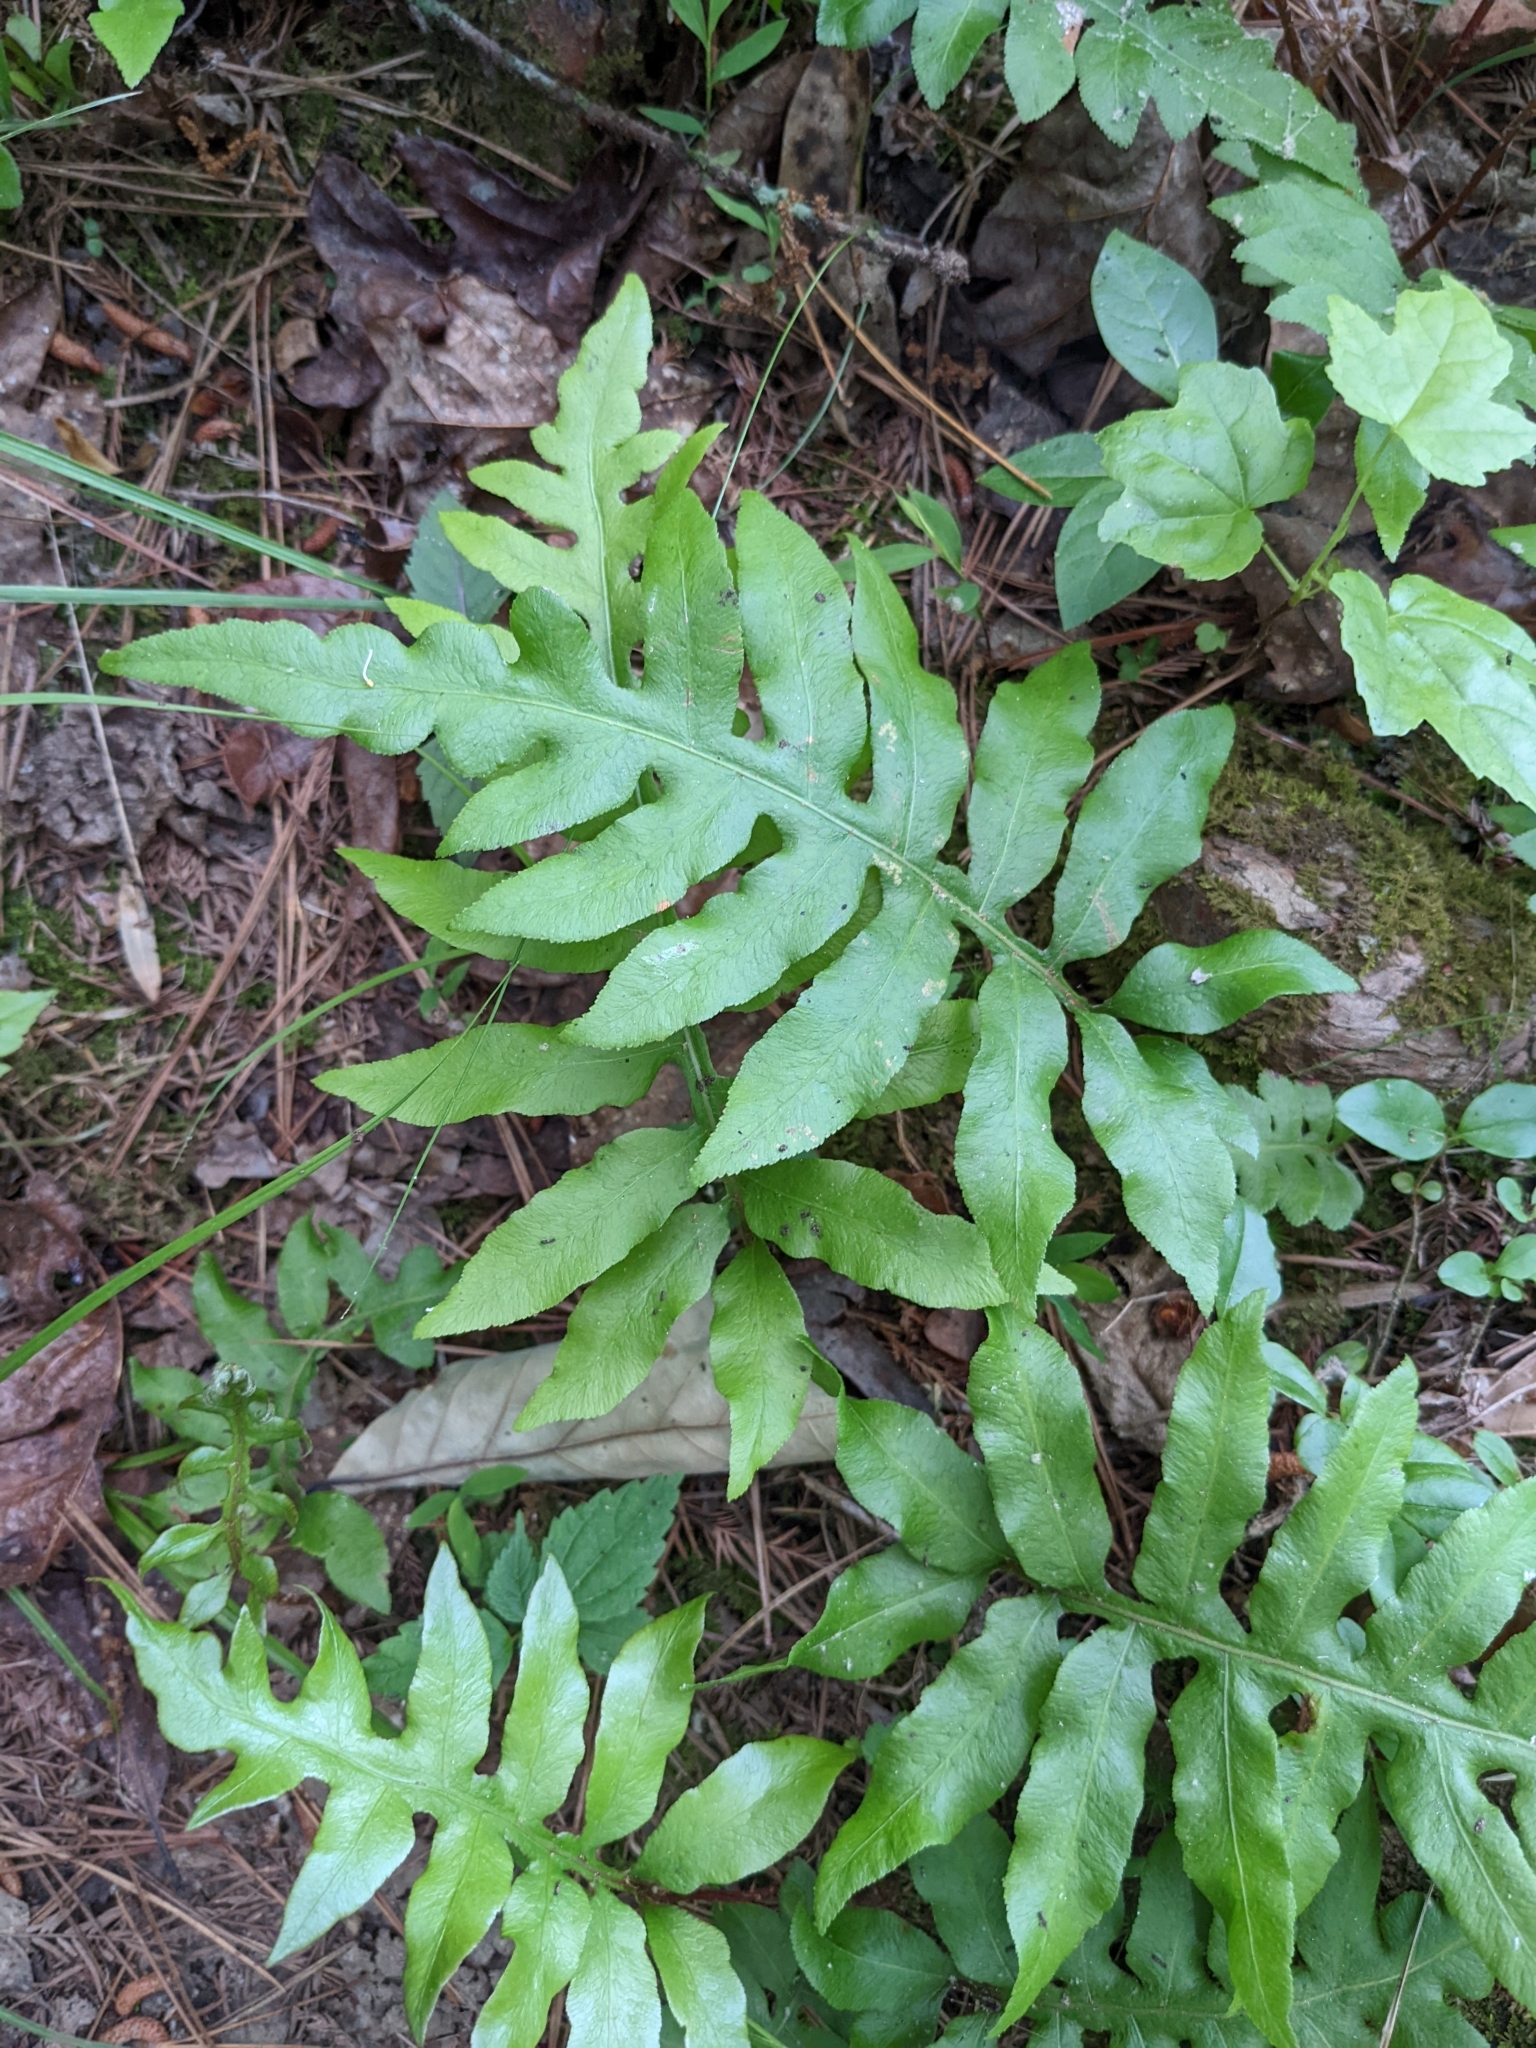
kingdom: Plantae
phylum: Tracheophyta
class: Polypodiopsida
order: Polypodiales
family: Blechnaceae
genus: Lorinseria
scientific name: Lorinseria areolata
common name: Dwarf chain fern
